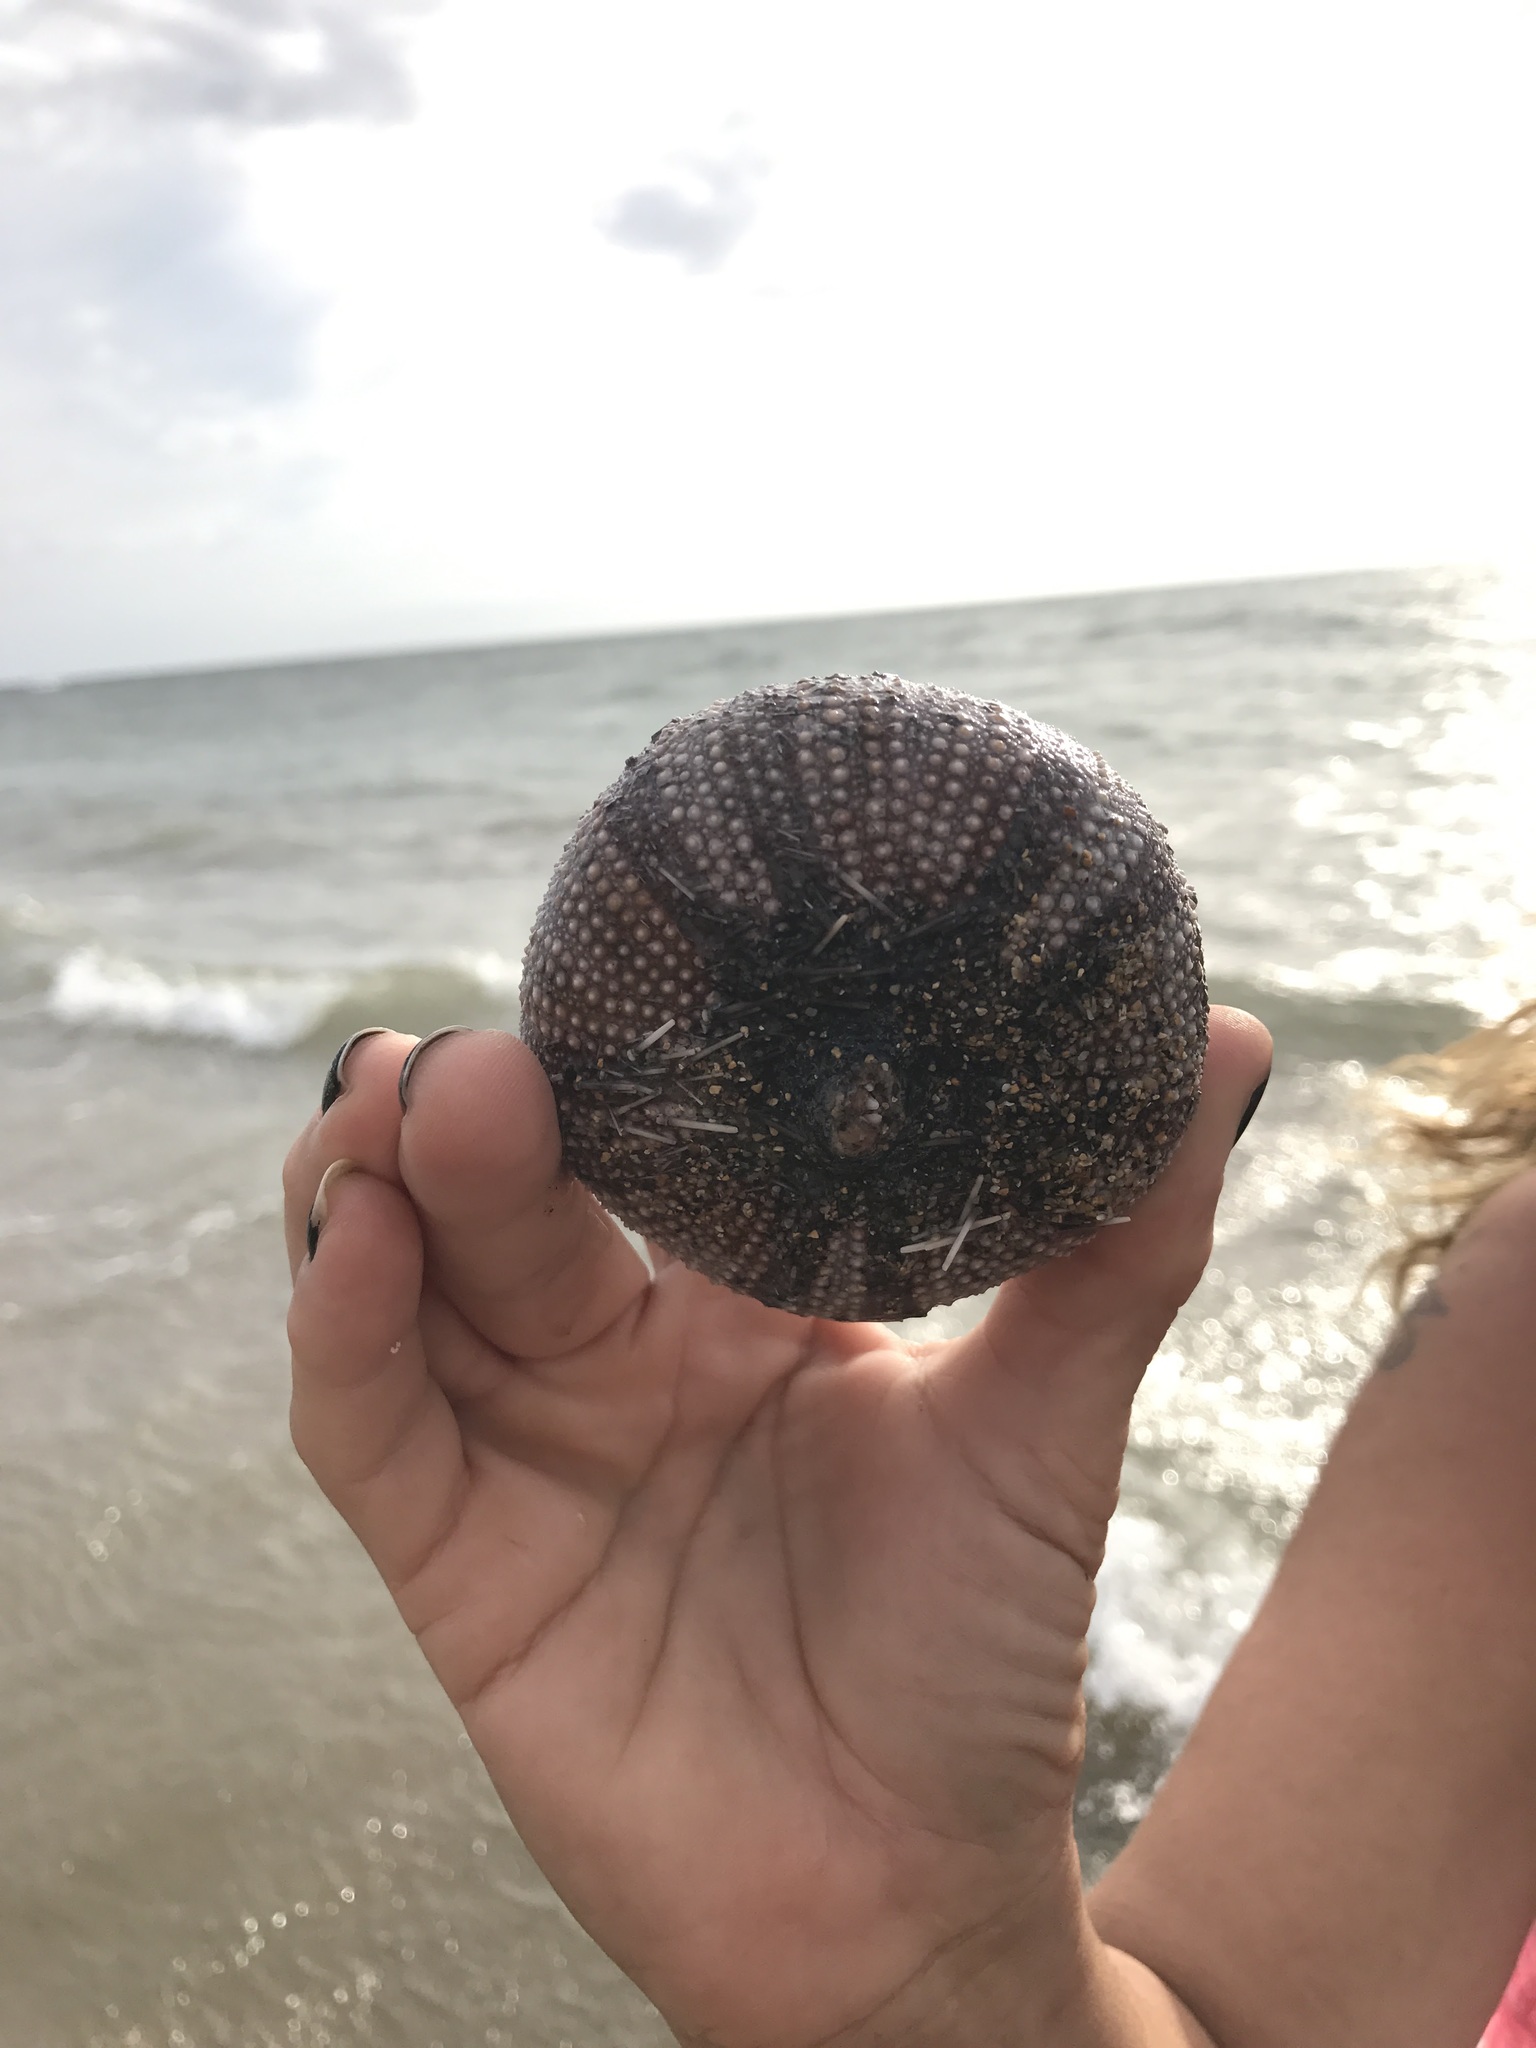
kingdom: Animalia
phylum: Echinodermata
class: Echinoidea
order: Camarodonta
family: Toxopneustidae
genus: Tripneustes
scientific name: Tripneustes gratilla
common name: Bischofsmützenseeigel
